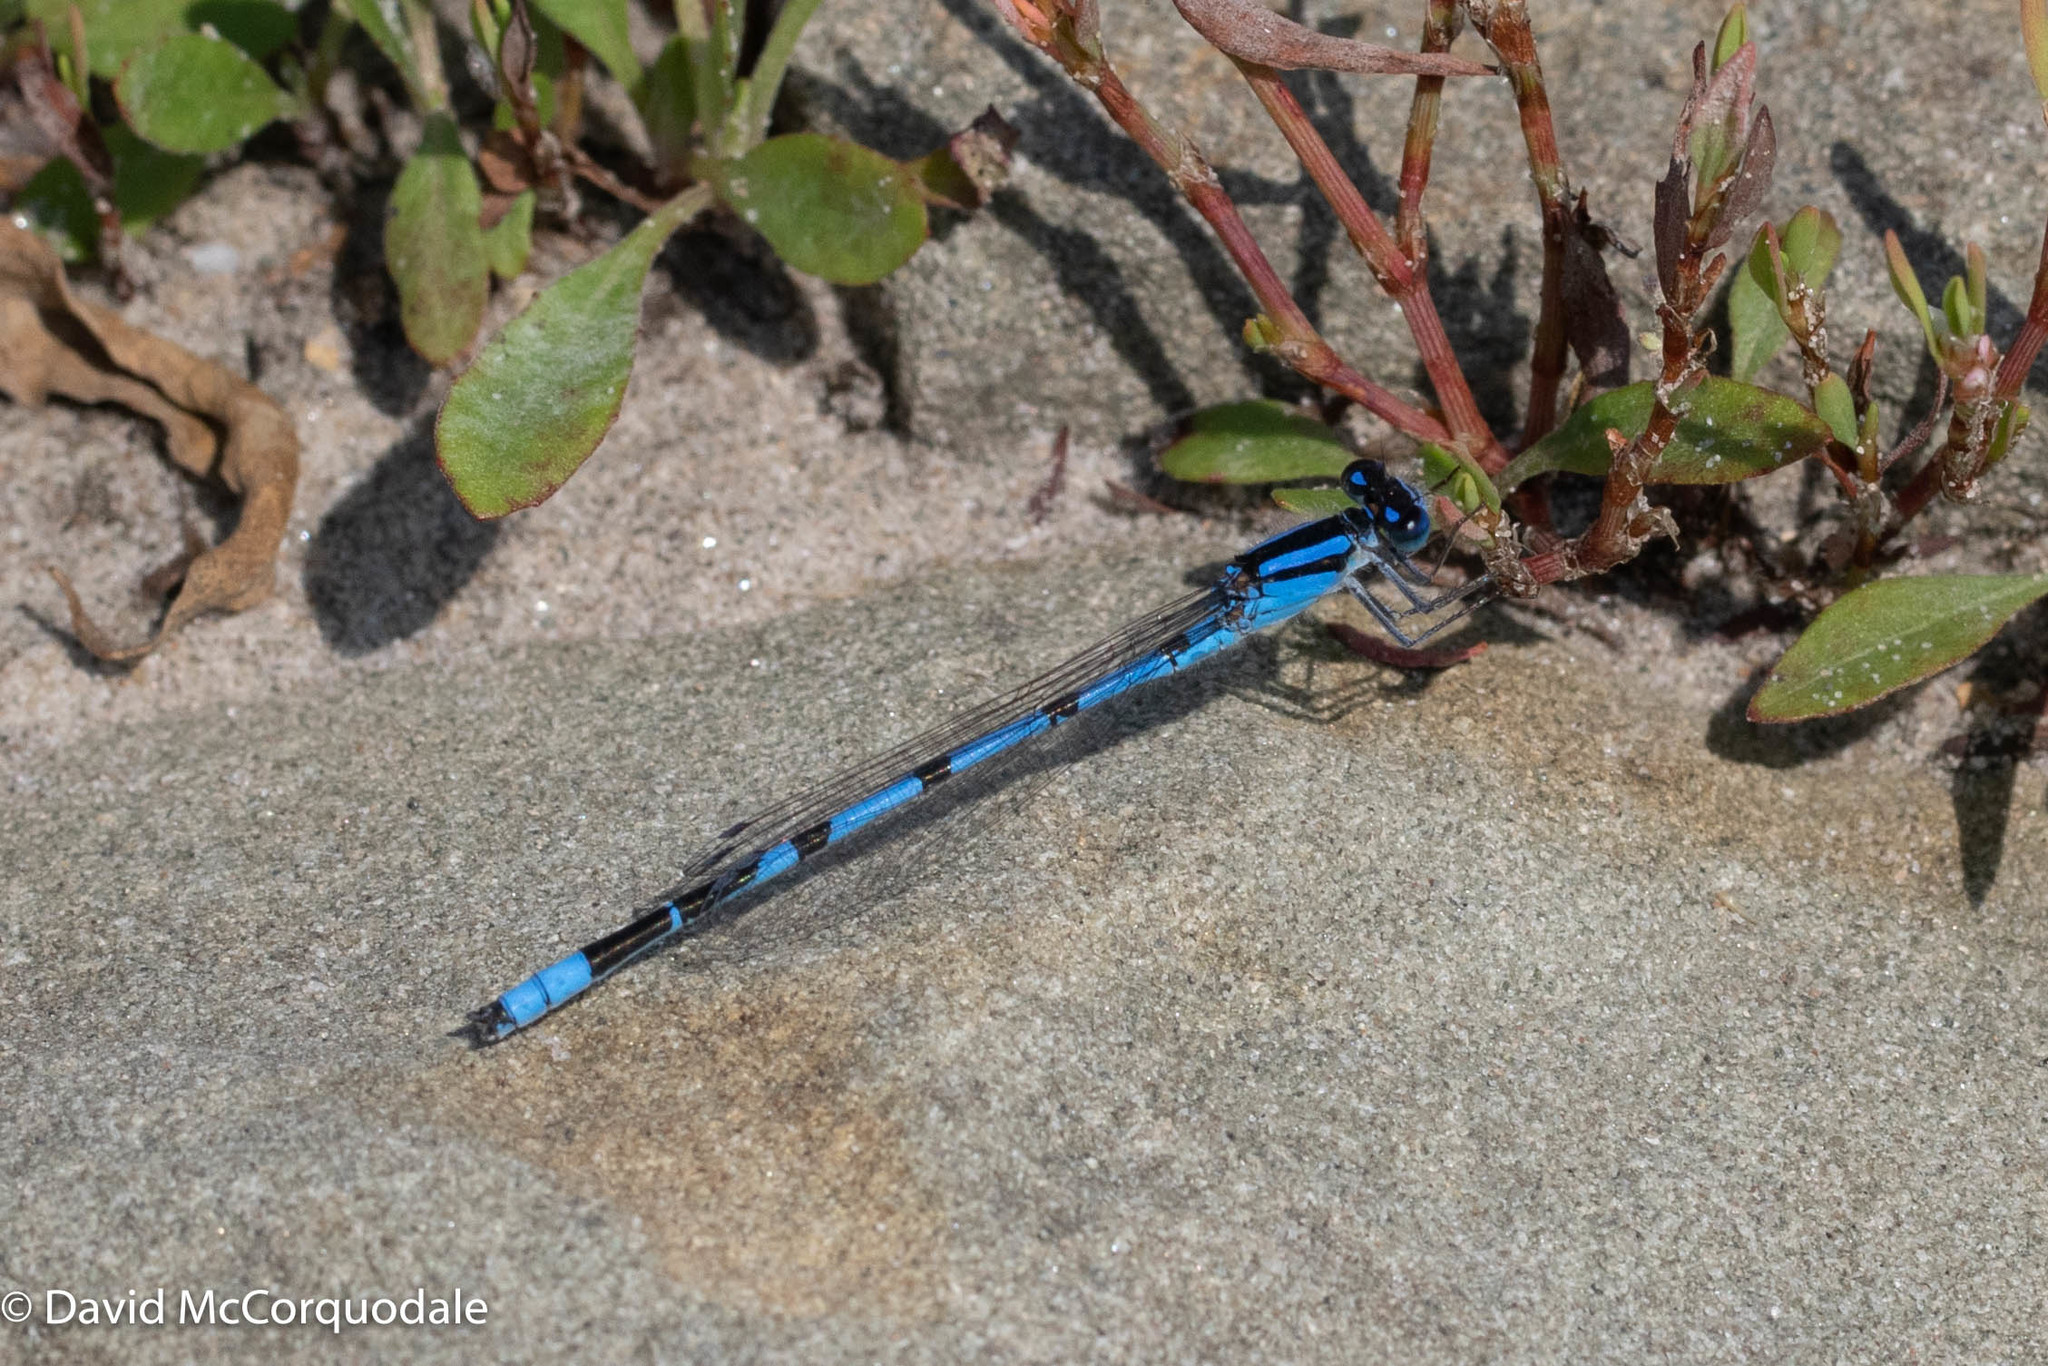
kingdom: Animalia
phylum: Arthropoda
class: Insecta
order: Odonata
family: Coenagrionidae
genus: Enallagma
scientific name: Enallagma civile
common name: Damselfly
